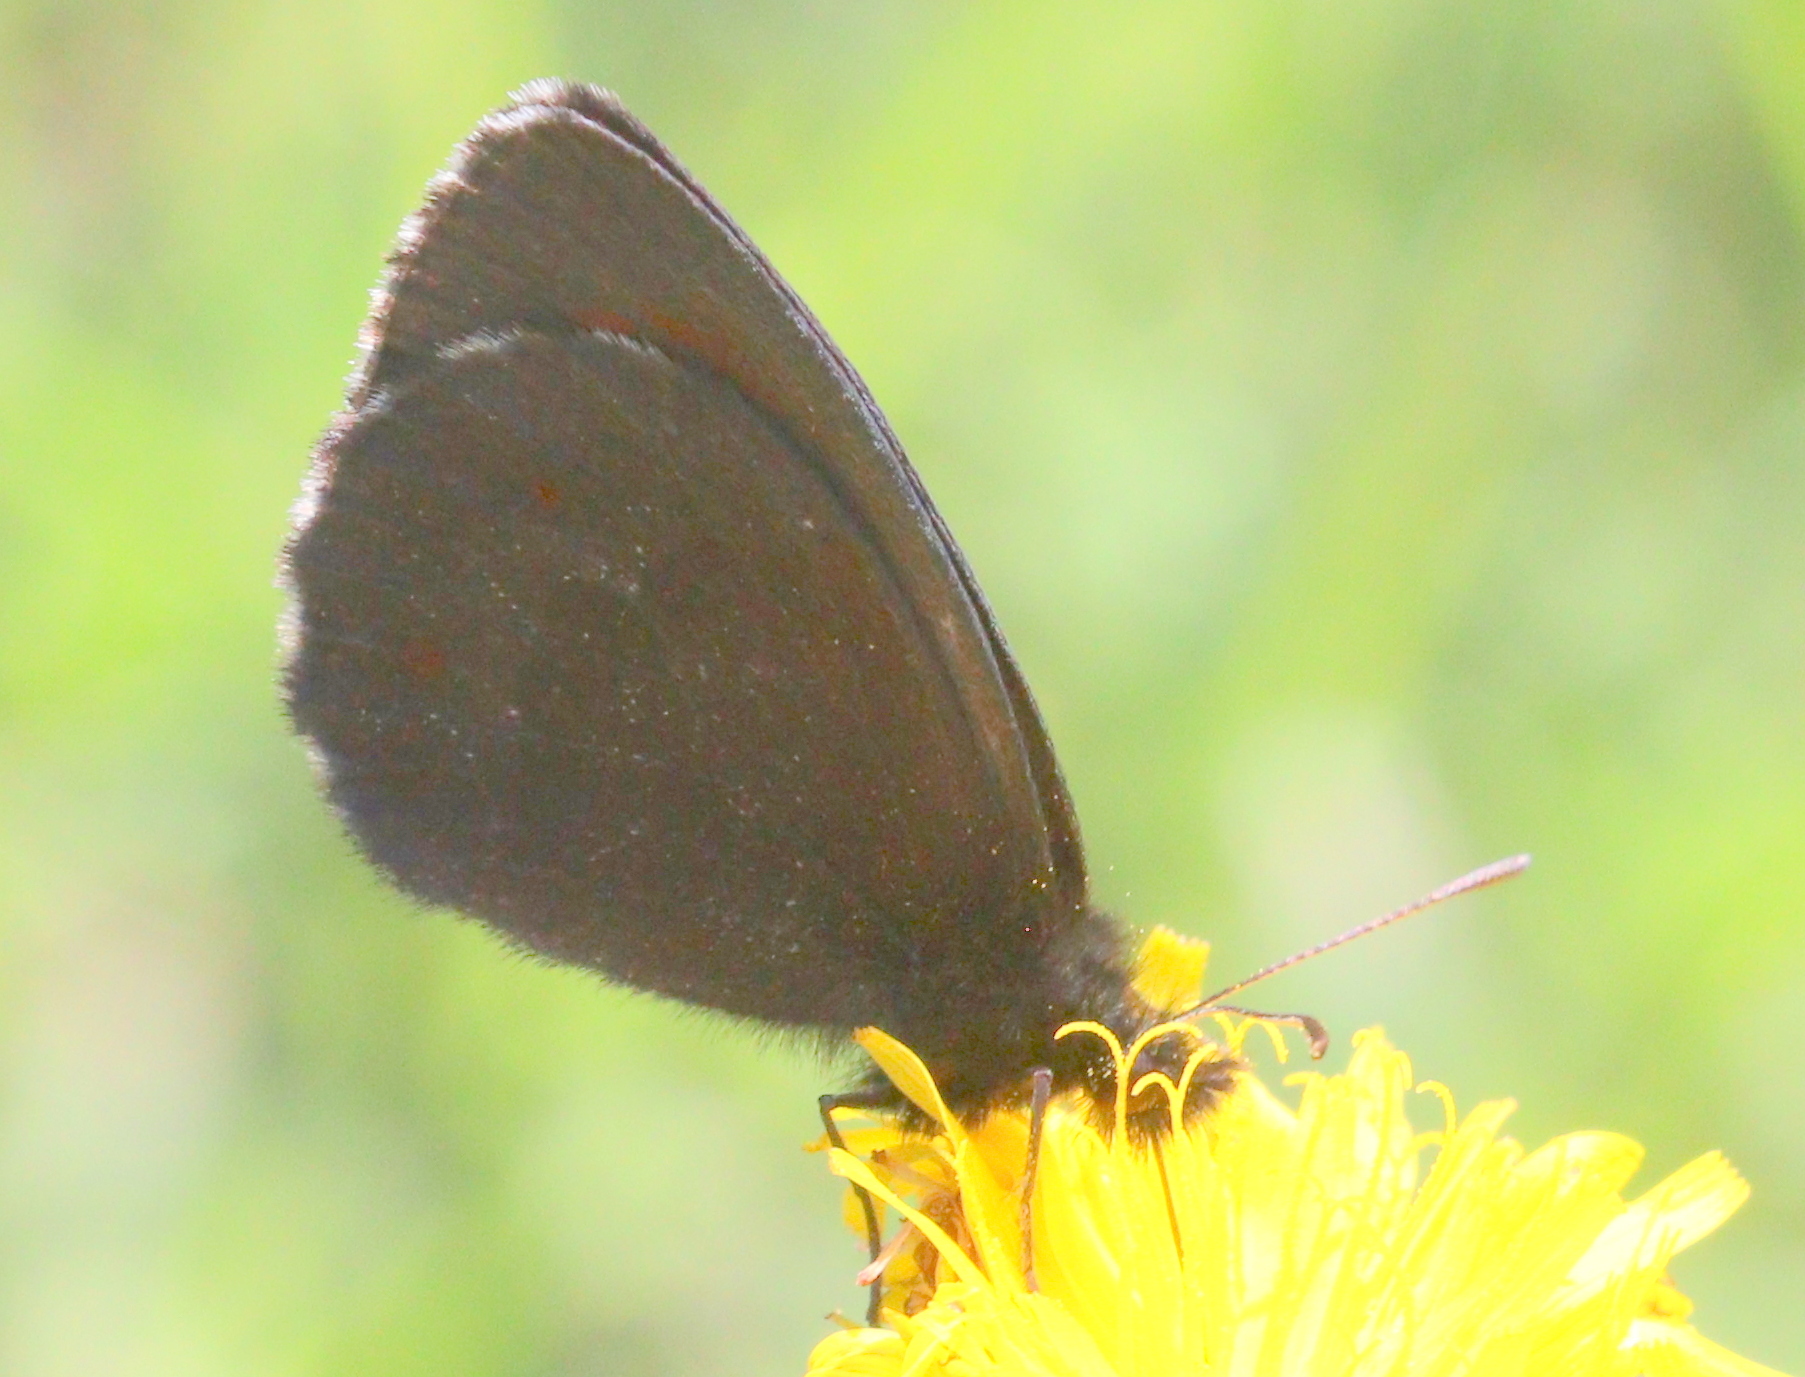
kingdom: Animalia
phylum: Arthropoda
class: Insecta
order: Lepidoptera
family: Nymphalidae
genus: Erebia
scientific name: Erebia euryale
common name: Large ringlet
